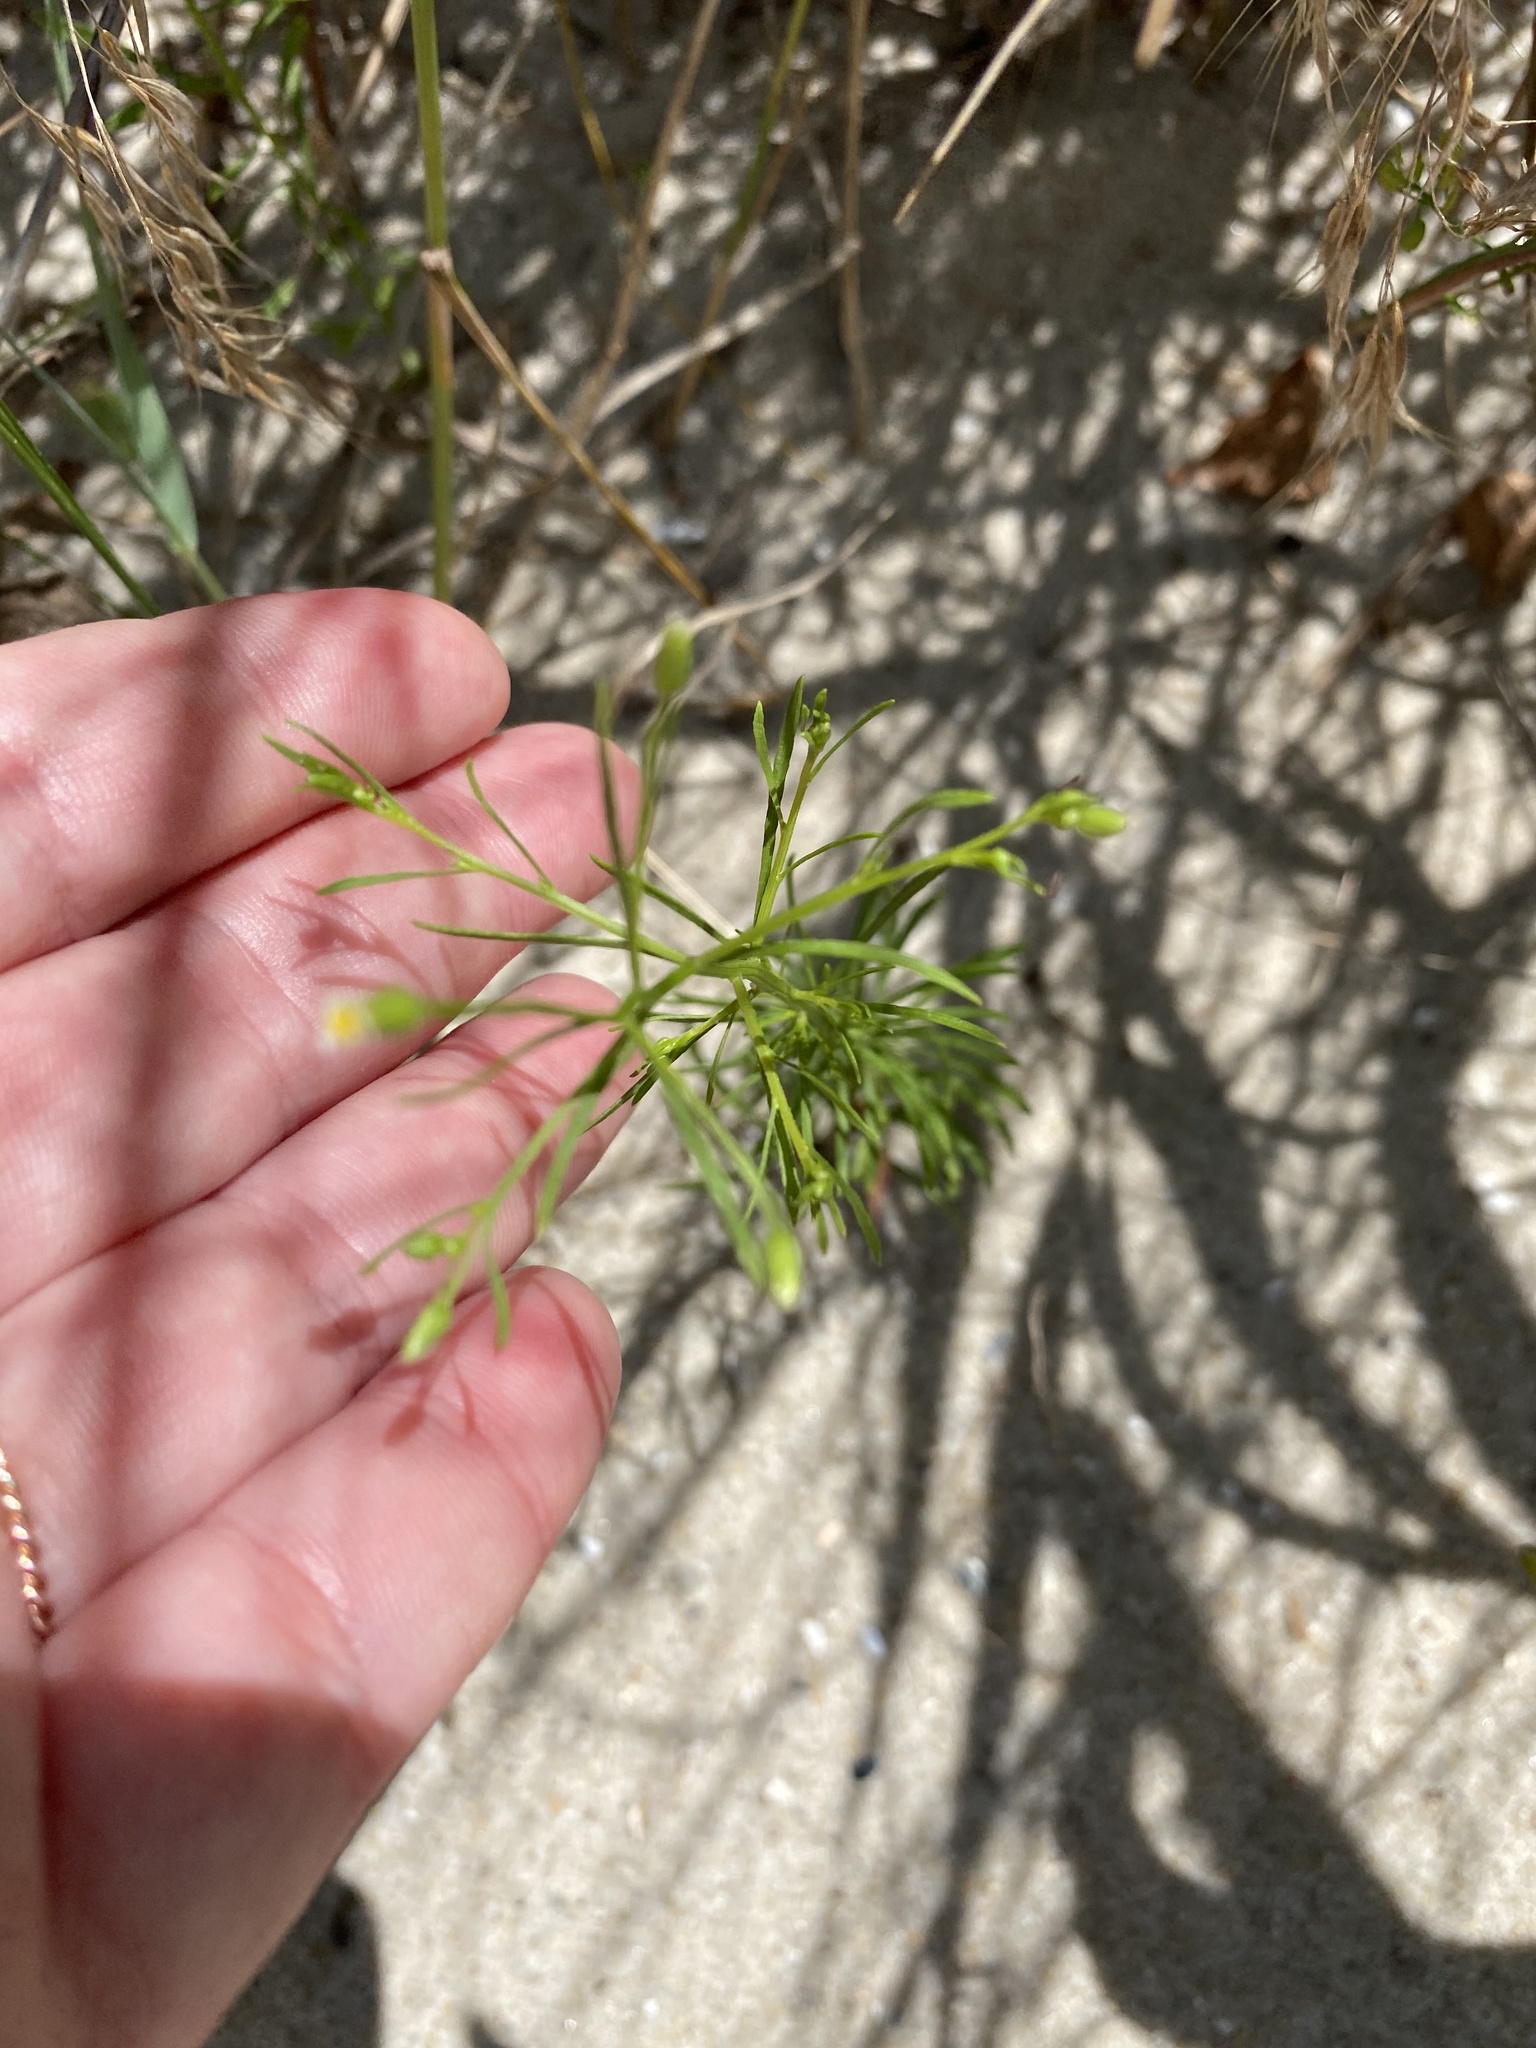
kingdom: Plantae
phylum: Tracheophyta
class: Magnoliopsida
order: Asterales
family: Asteraceae
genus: Erigeron
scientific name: Erigeron canadensis
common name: Canadian fleabane
